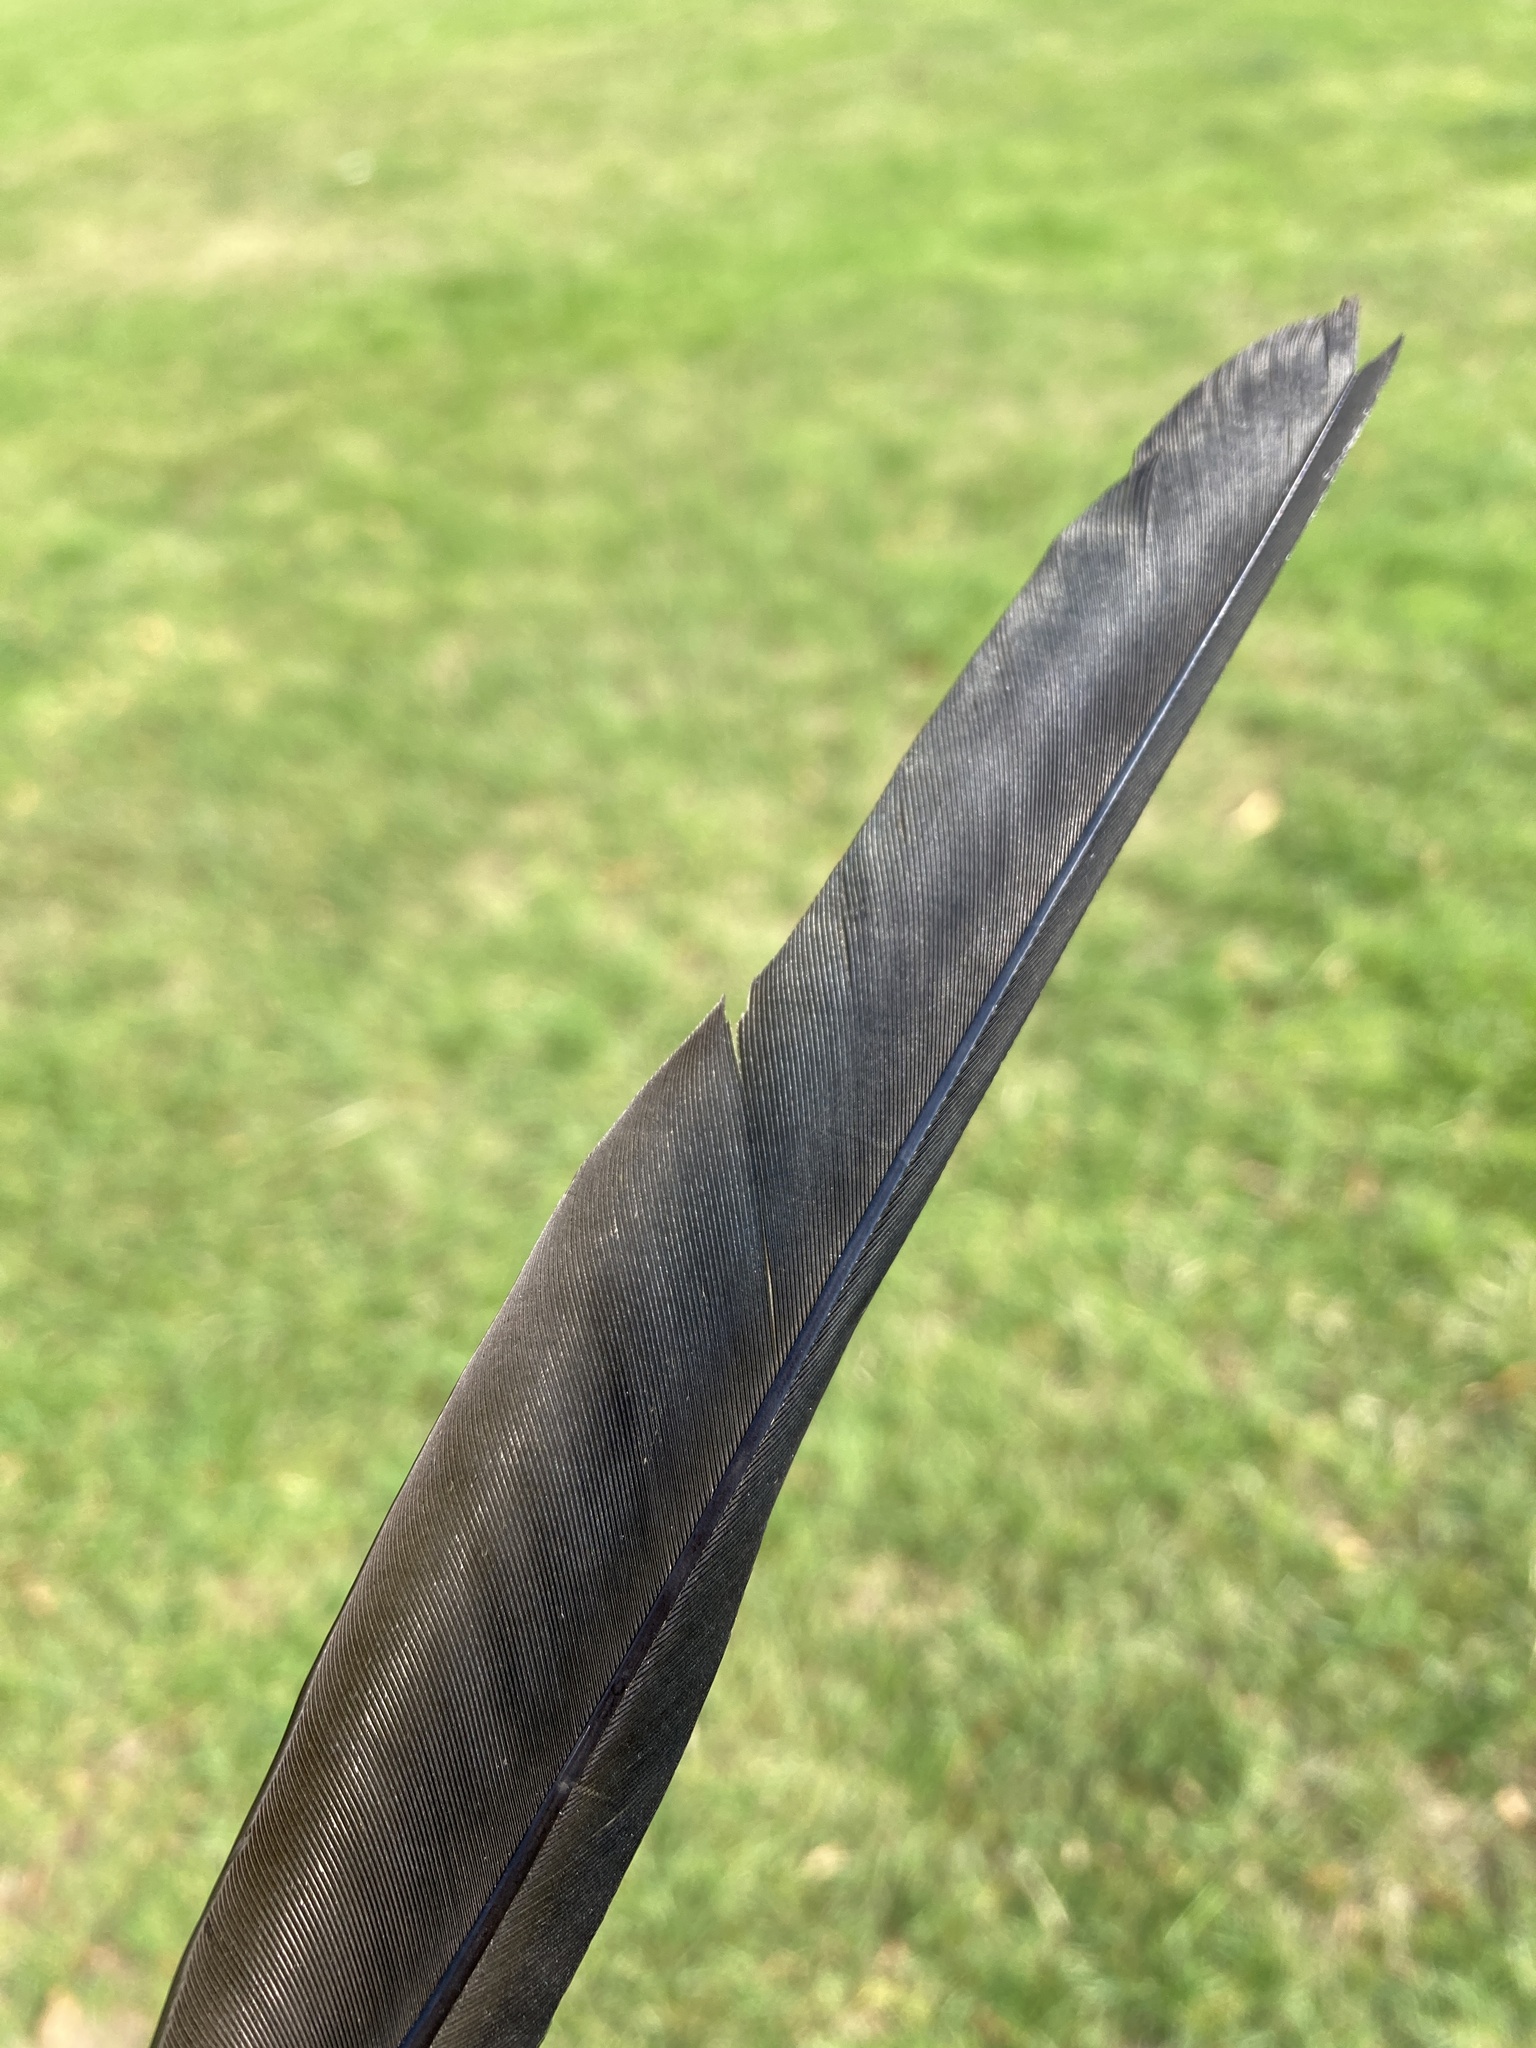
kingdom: Animalia
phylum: Chordata
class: Aves
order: Passeriformes
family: Corvidae
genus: Coloeus
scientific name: Coloeus monedula
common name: Western jackdaw
